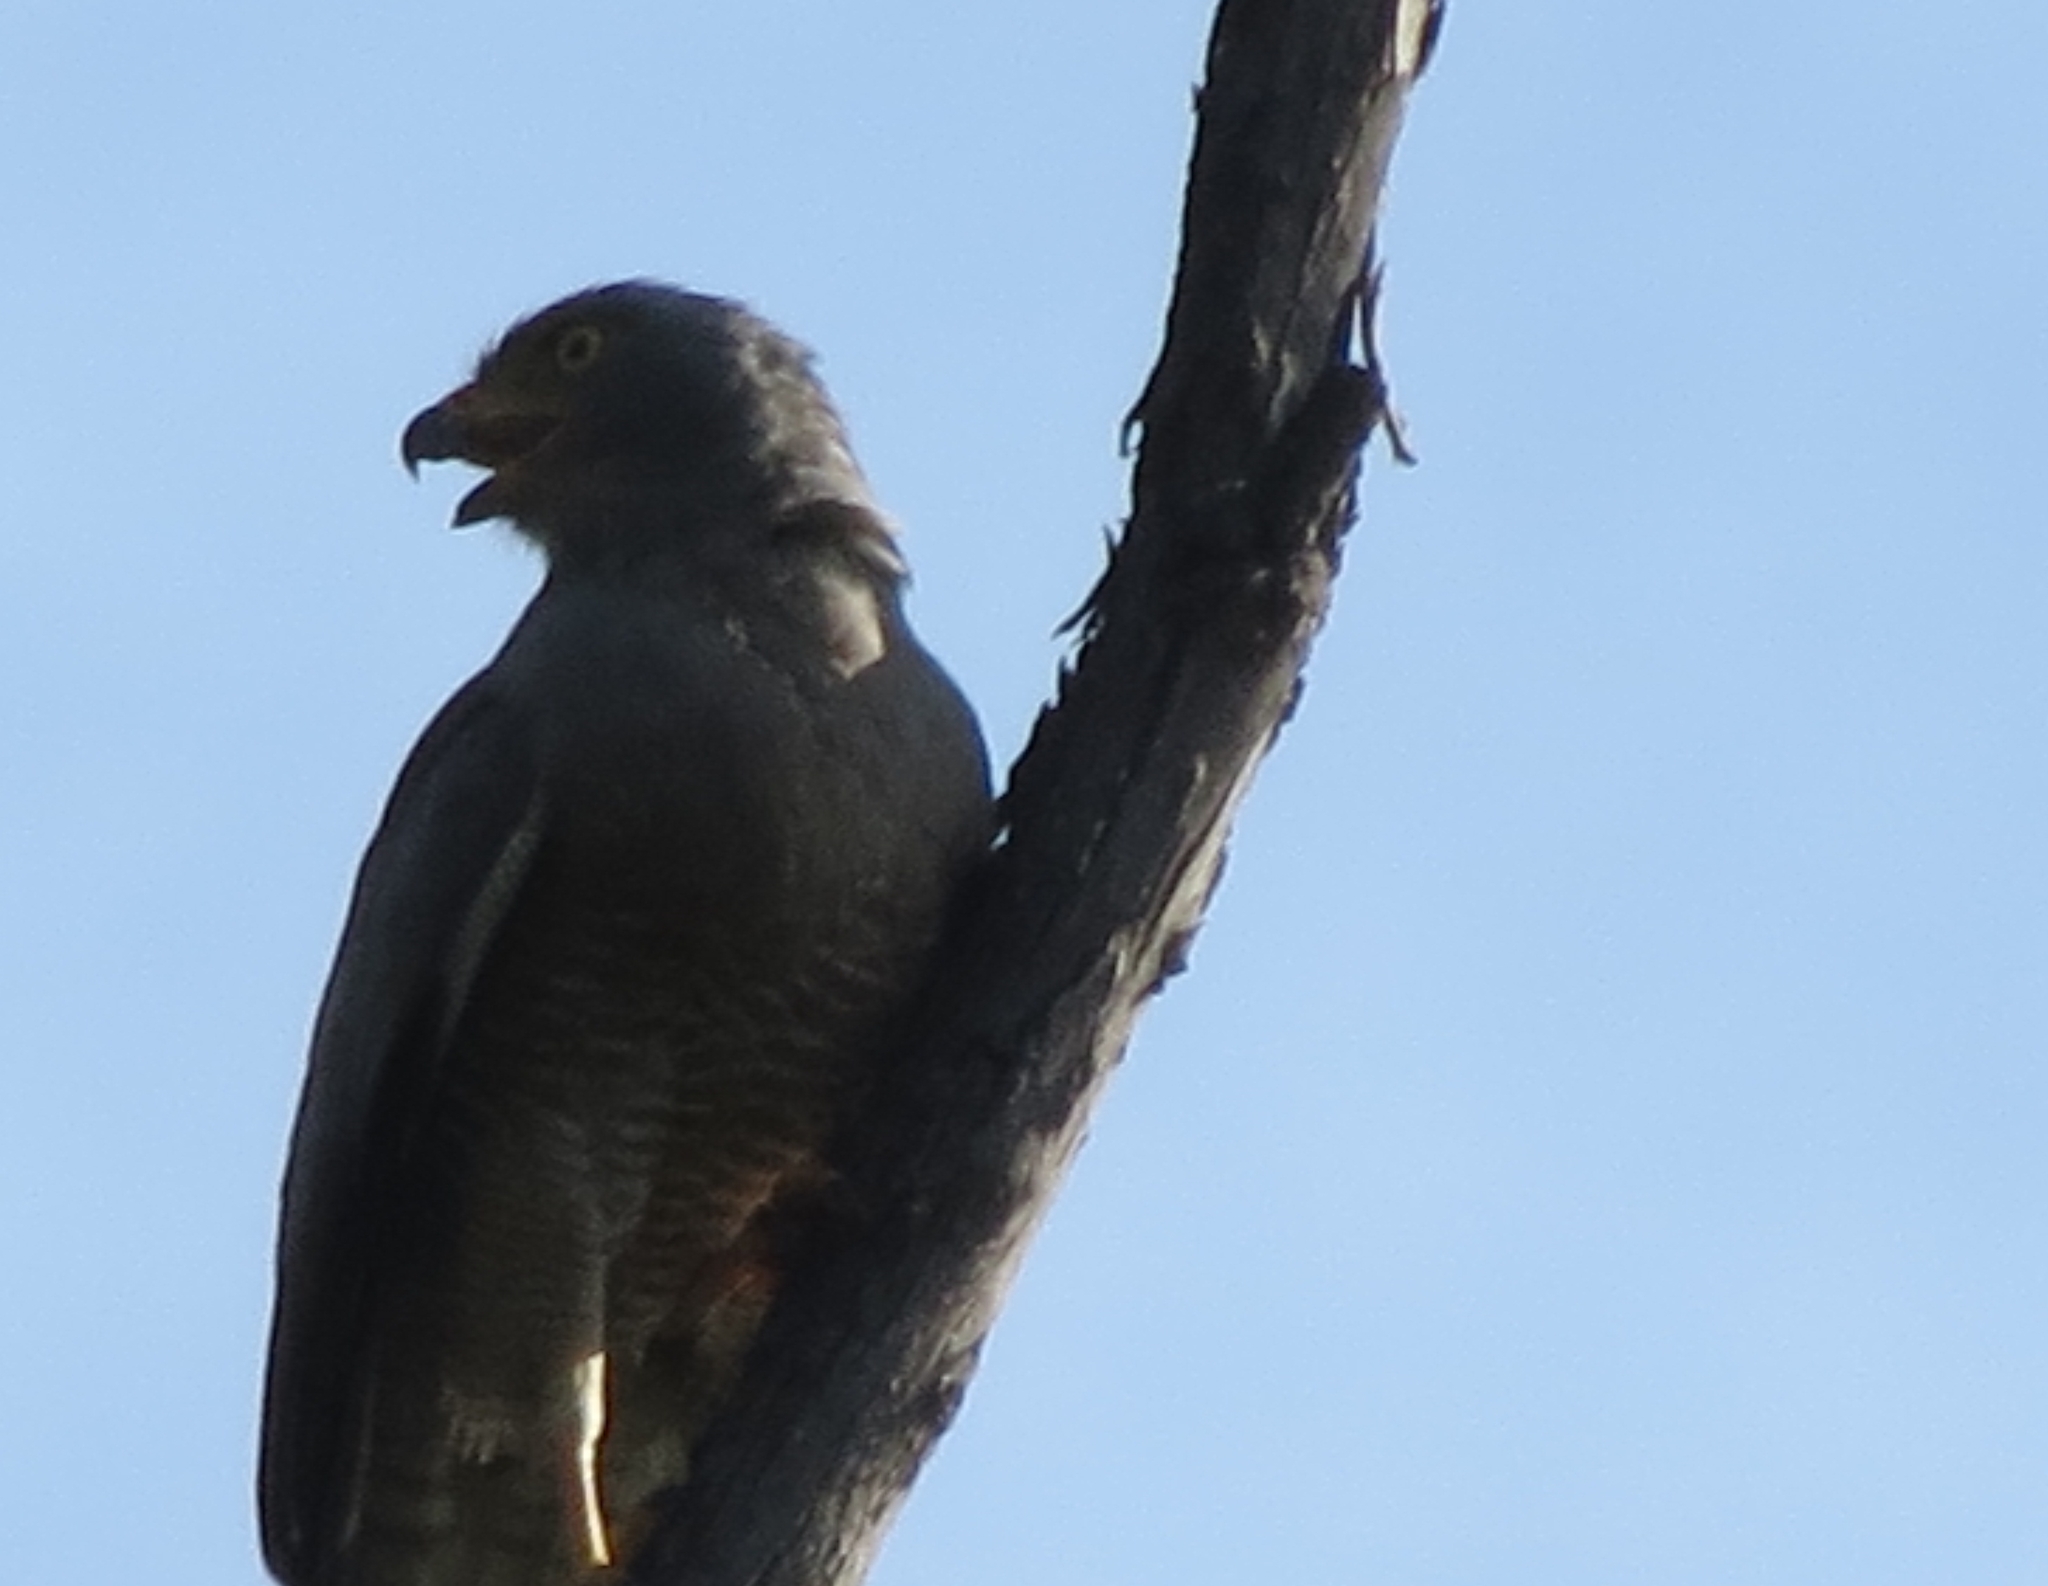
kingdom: Animalia
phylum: Chordata
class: Aves
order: Accipitriformes
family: Accipitridae
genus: Rupornis
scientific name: Rupornis magnirostris
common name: Roadside hawk
